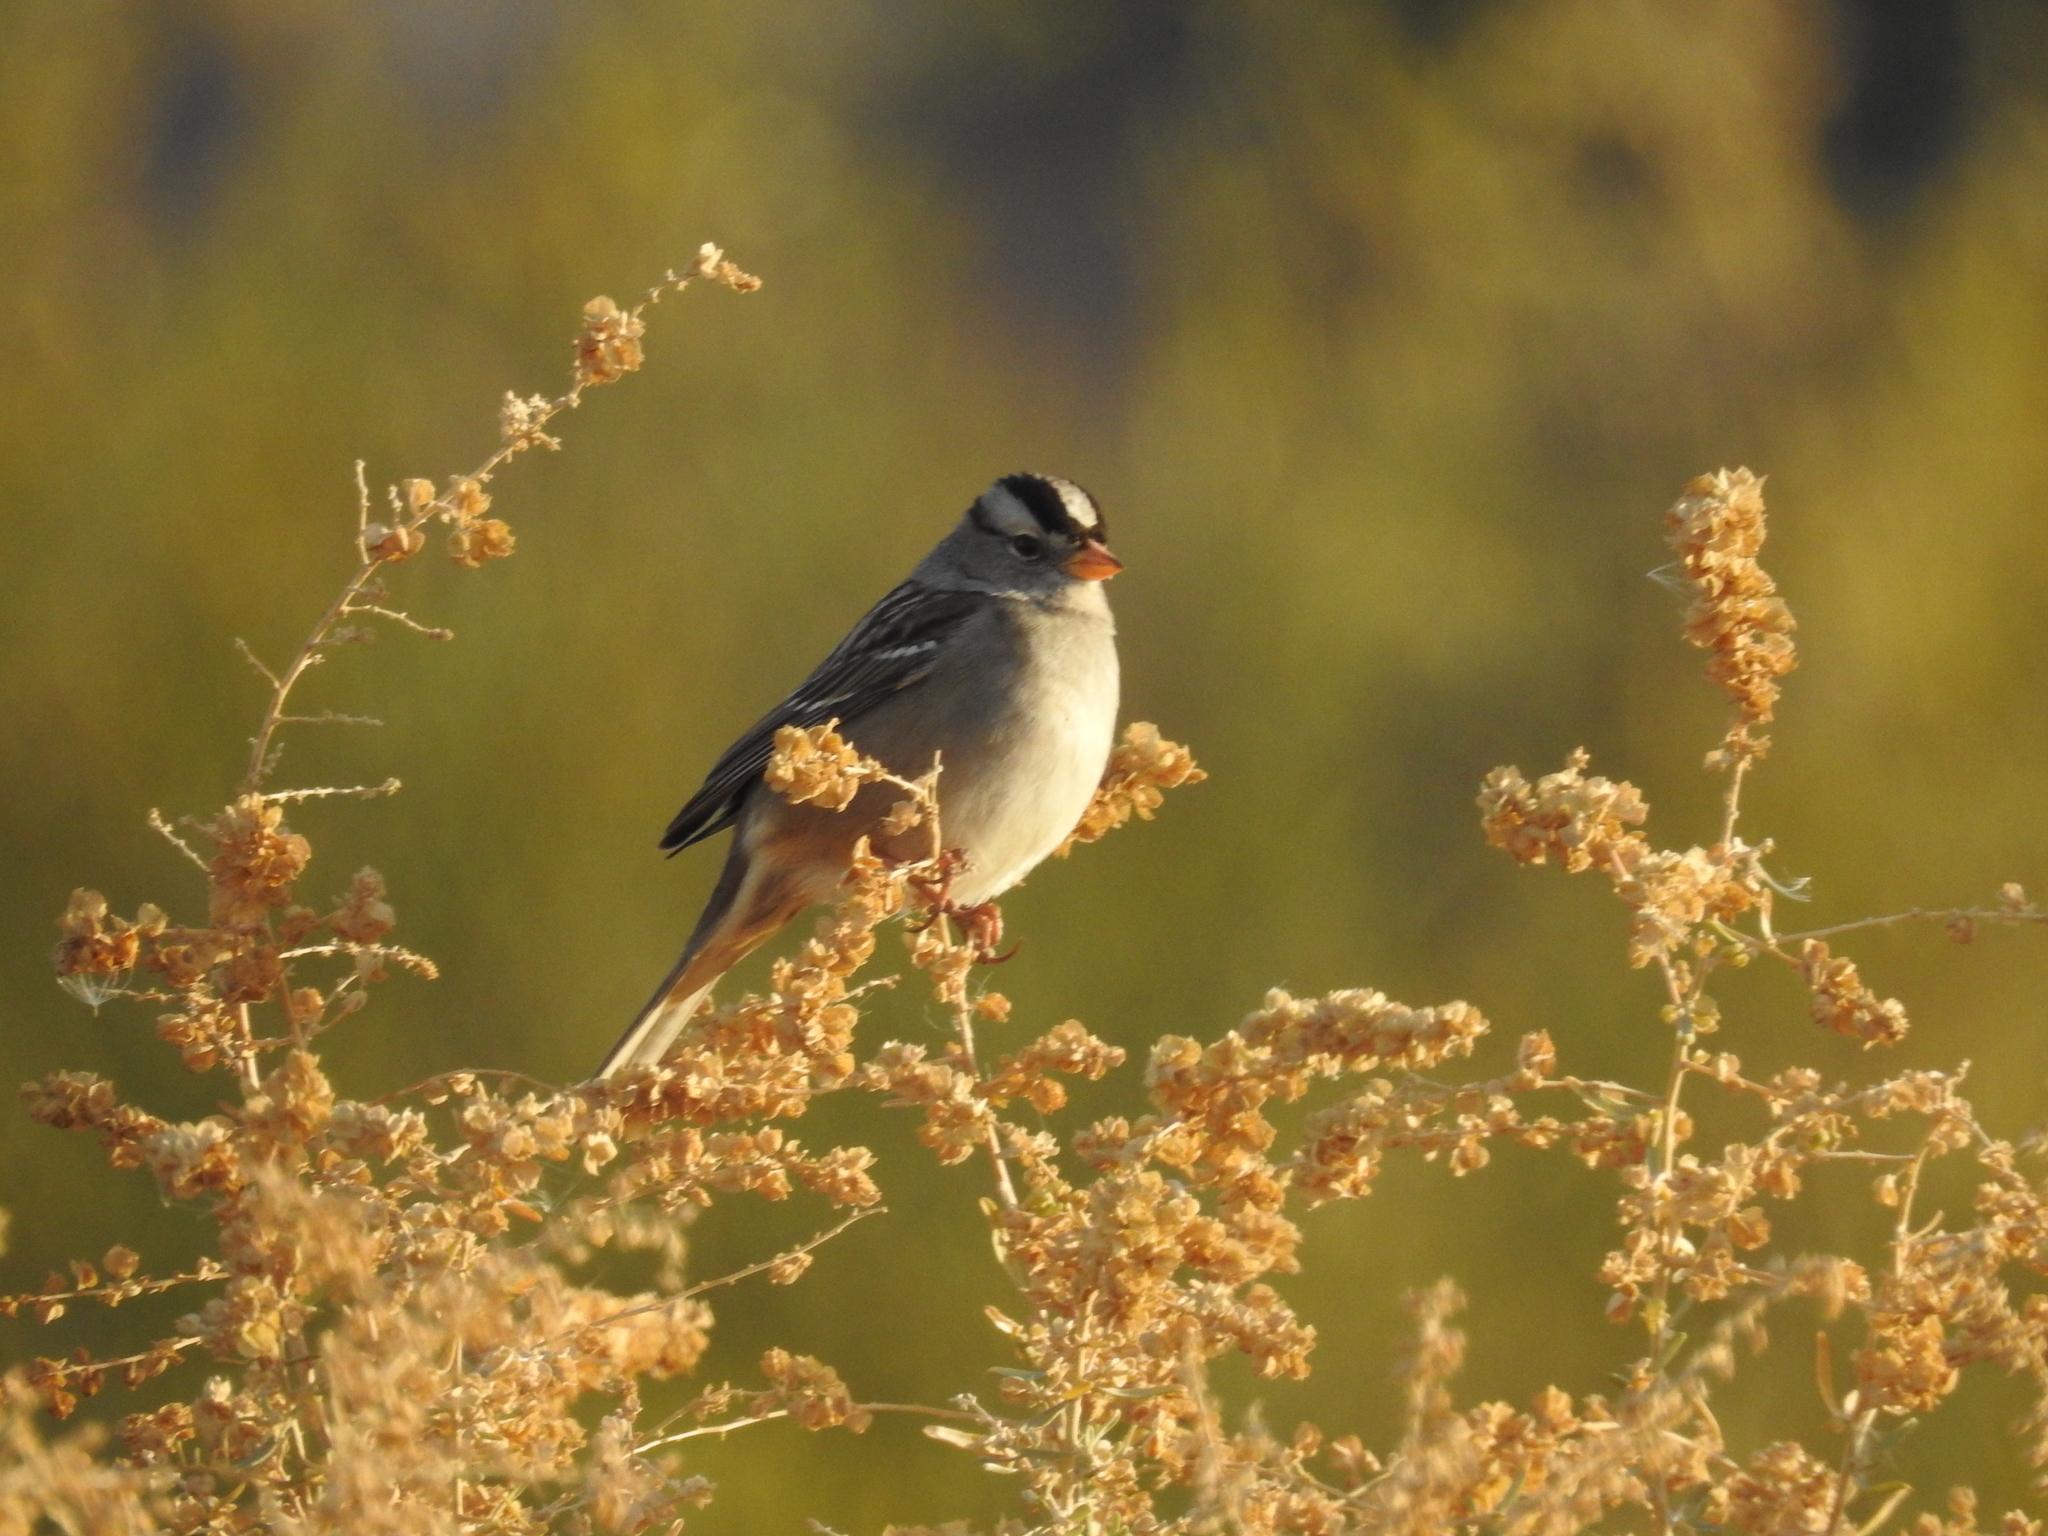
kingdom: Animalia
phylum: Chordata
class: Aves
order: Passeriformes
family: Passerellidae
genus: Zonotrichia
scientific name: Zonotrichia leucophrys
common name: White-crowned sparrow
